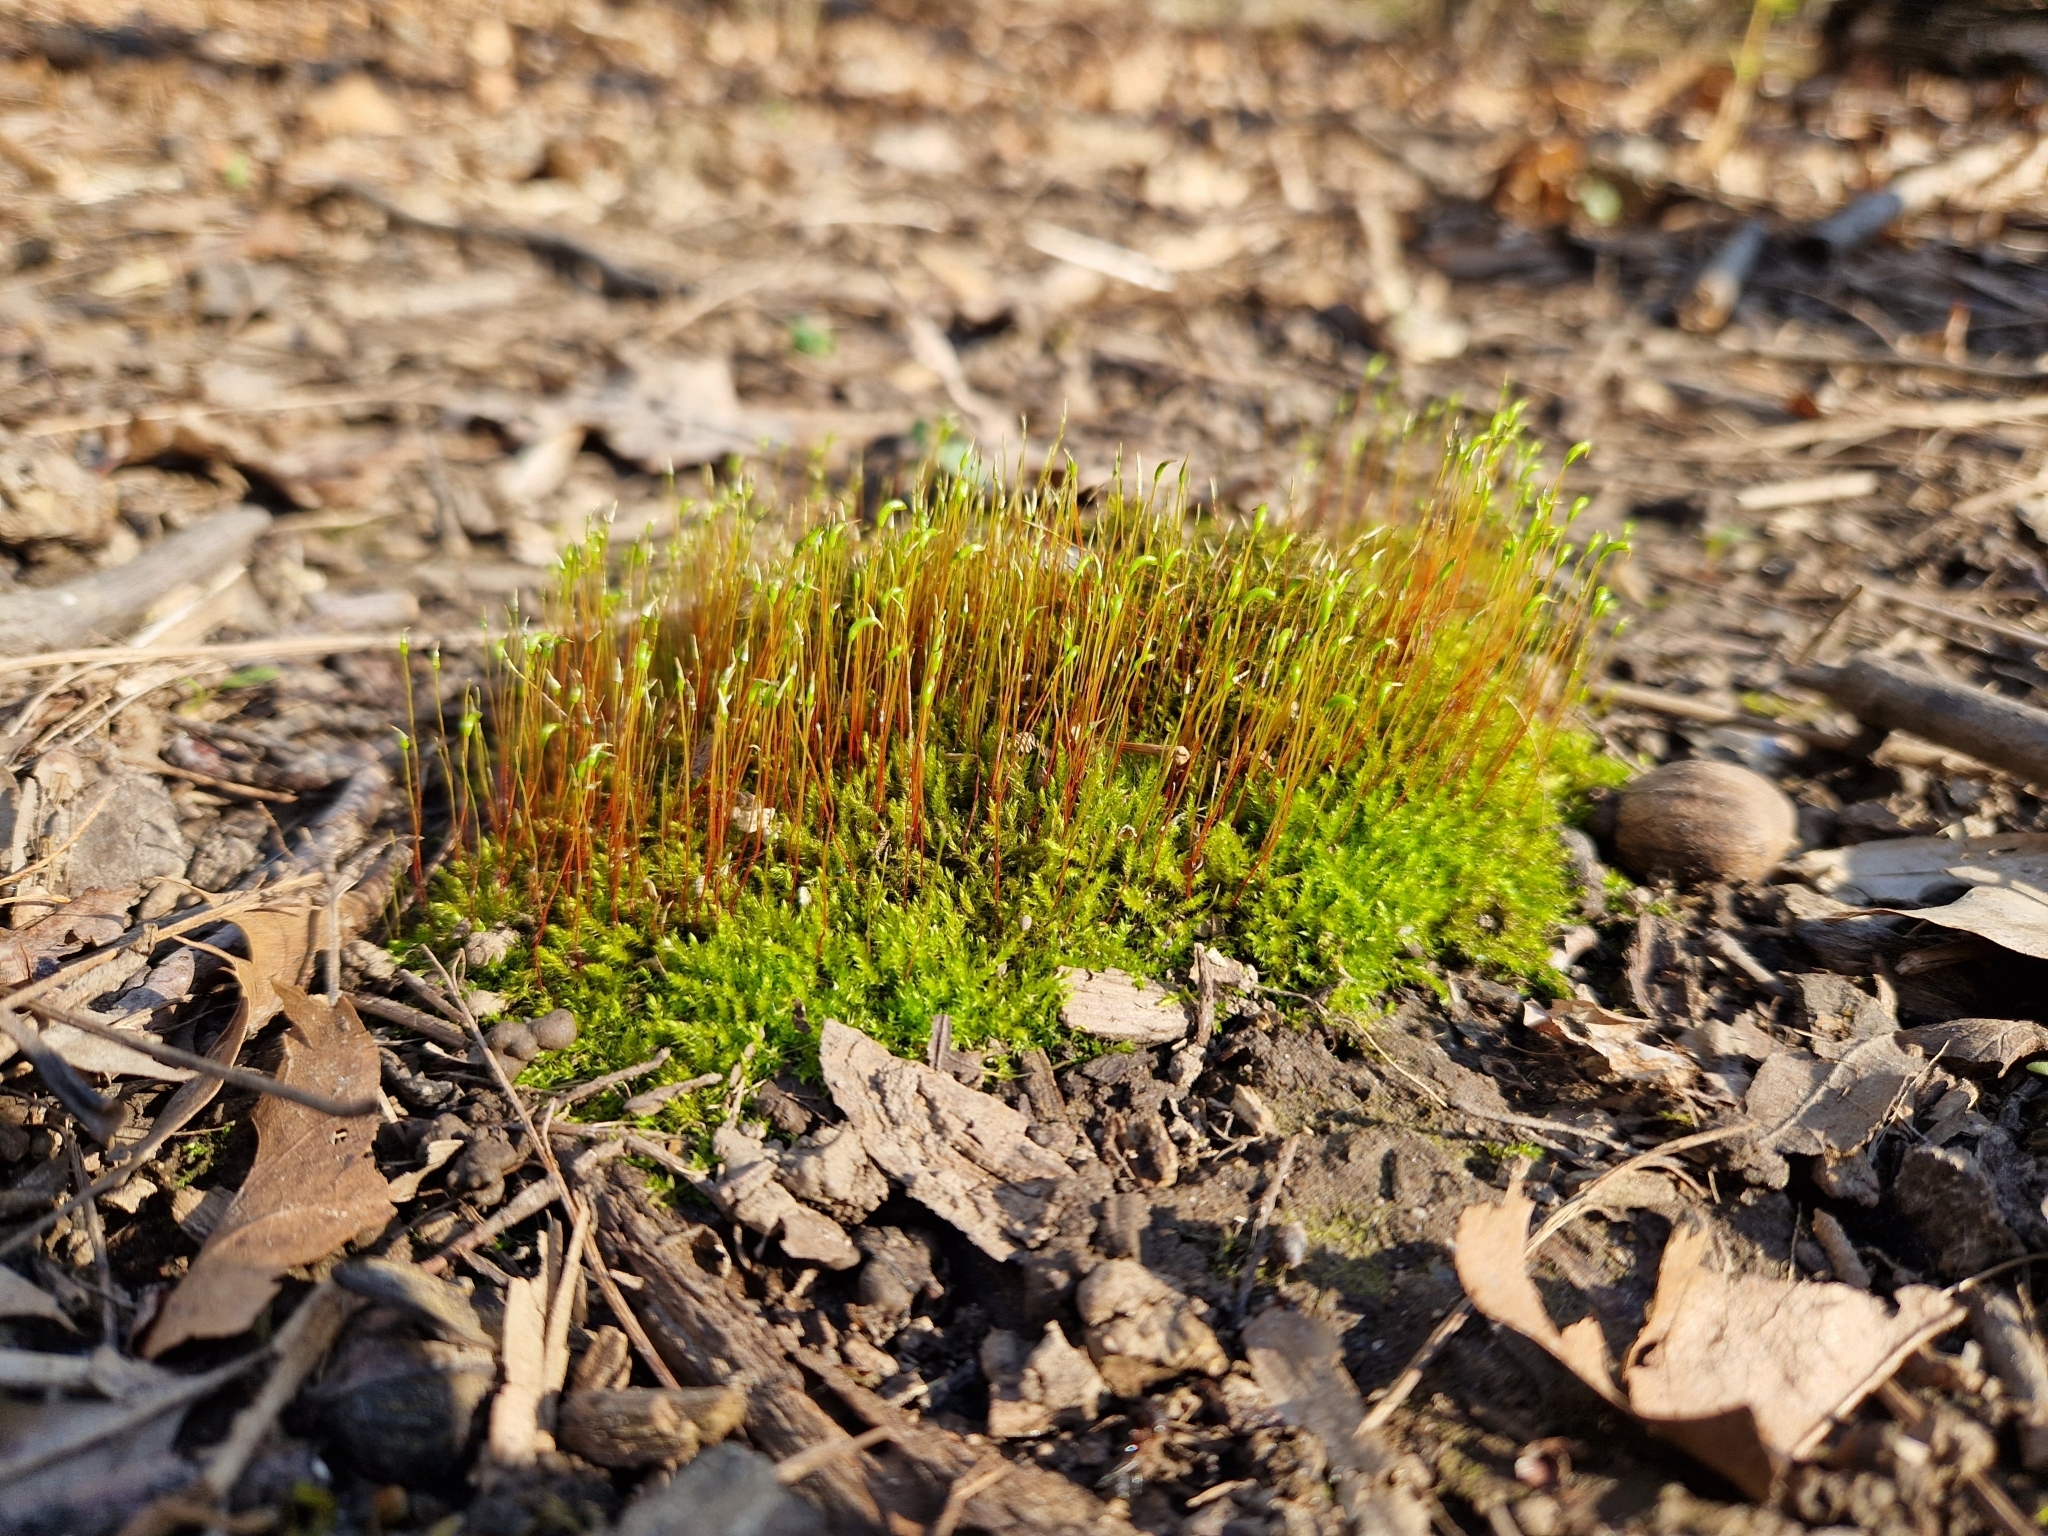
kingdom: Plantae
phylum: Bryophyta
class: Bryopsida
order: Dicranales
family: Ditrichaceae
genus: Ceratodon
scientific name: Ceratodon purpureus
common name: Redshank
